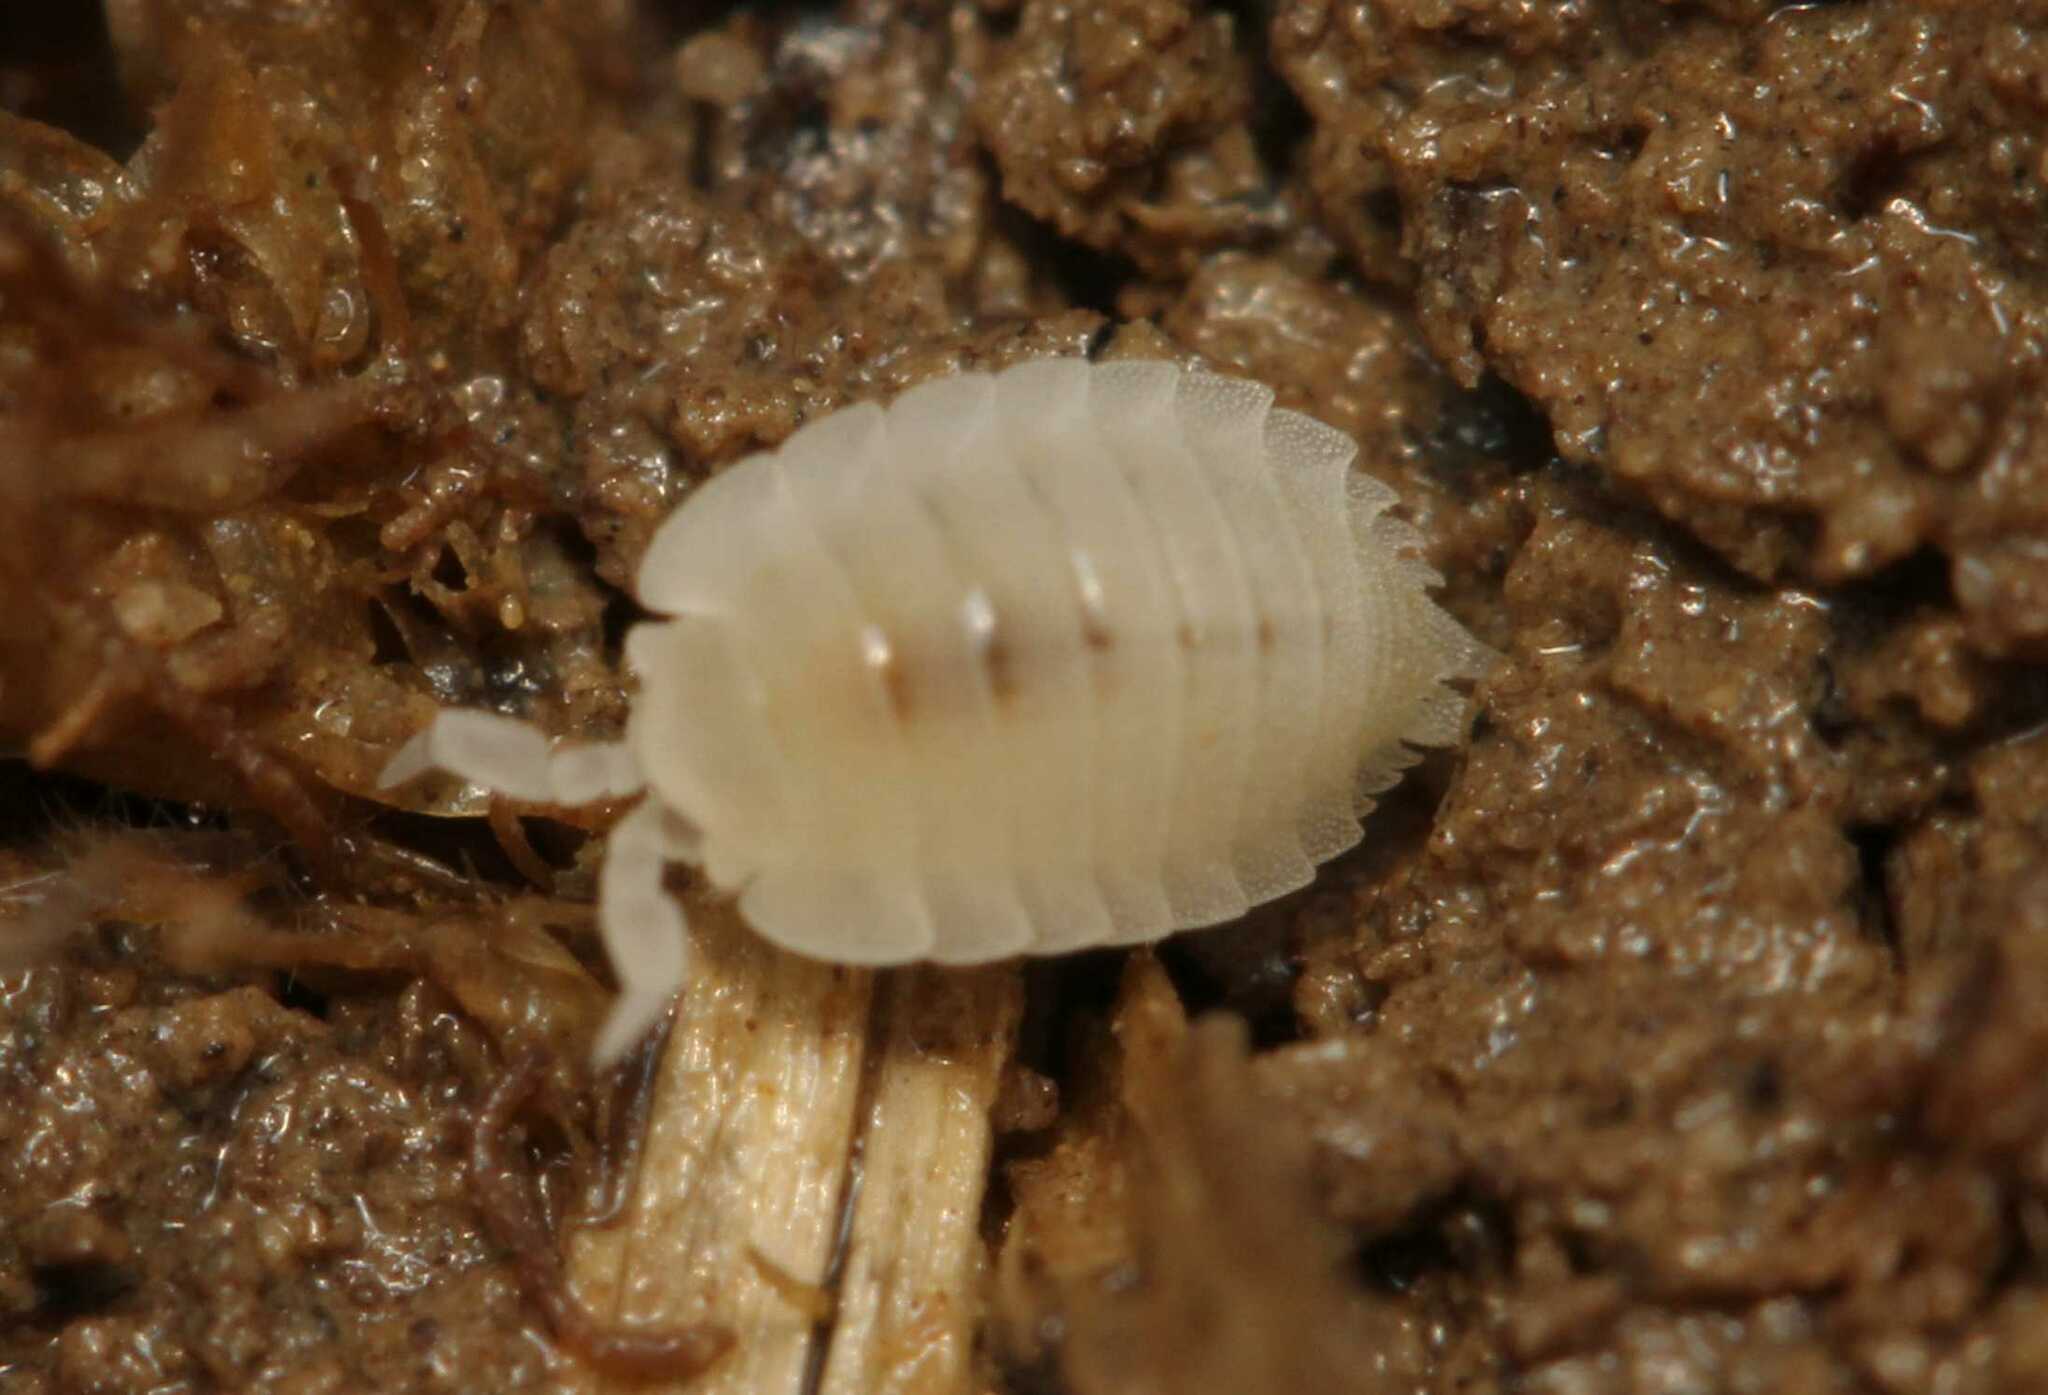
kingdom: Animalia
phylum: Arthropoda
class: Malacostraca
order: Isopoda
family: Platyarthridae
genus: Platyarthrus
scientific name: Platyarthrus hoffmannseggii
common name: Ant woodlouse
